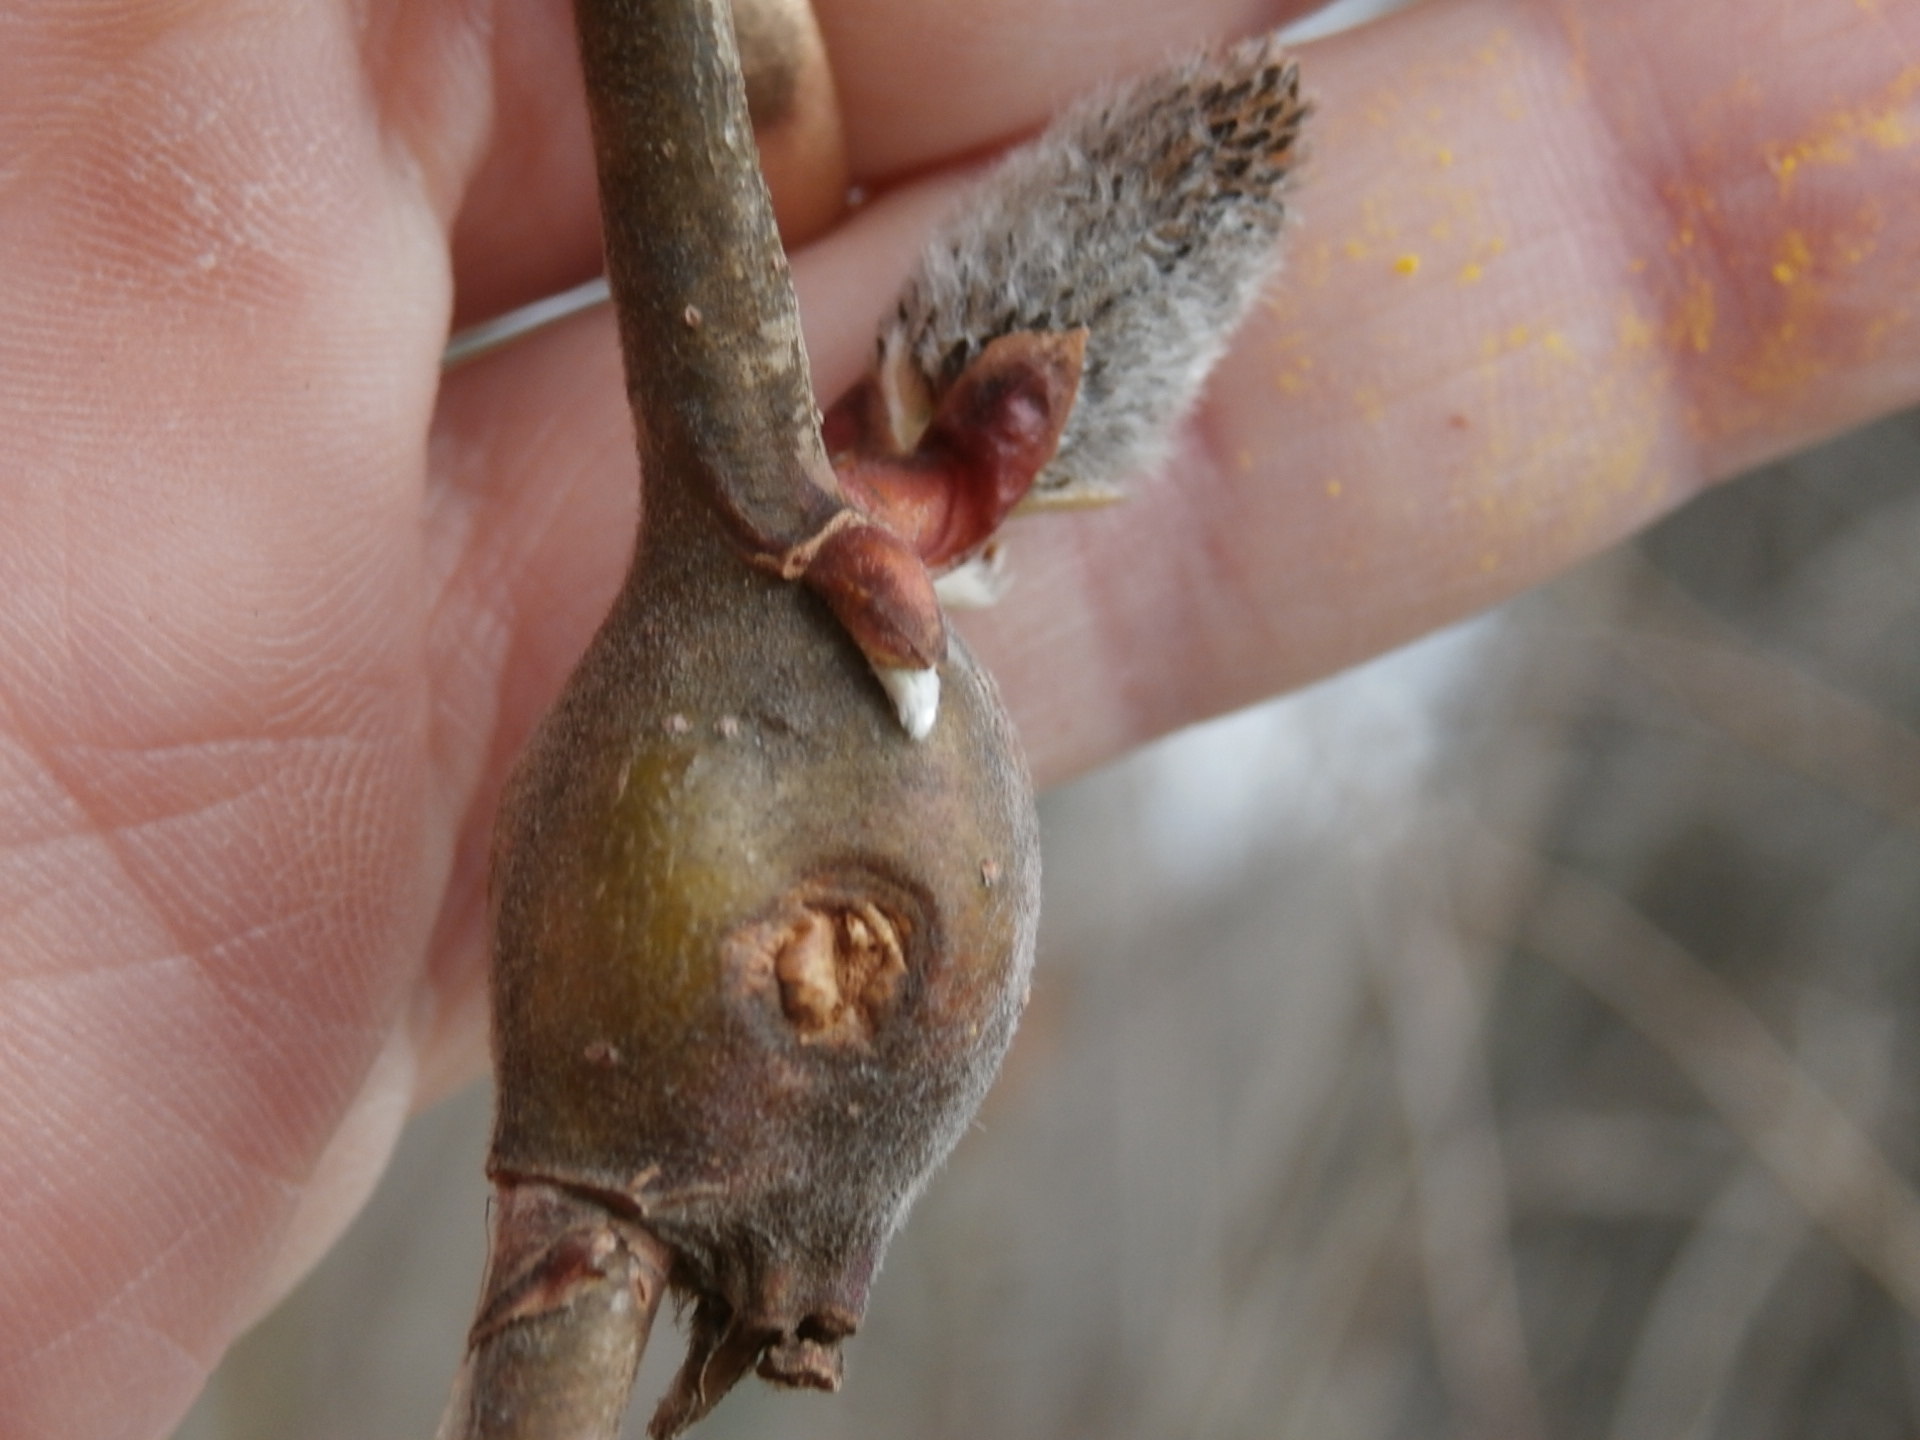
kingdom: Animalia
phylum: Arthropoda
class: Insecta
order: Diptera
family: Cecidomyiidae
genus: Thecodiplosis
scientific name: Thecodiplosis pinirigidae
